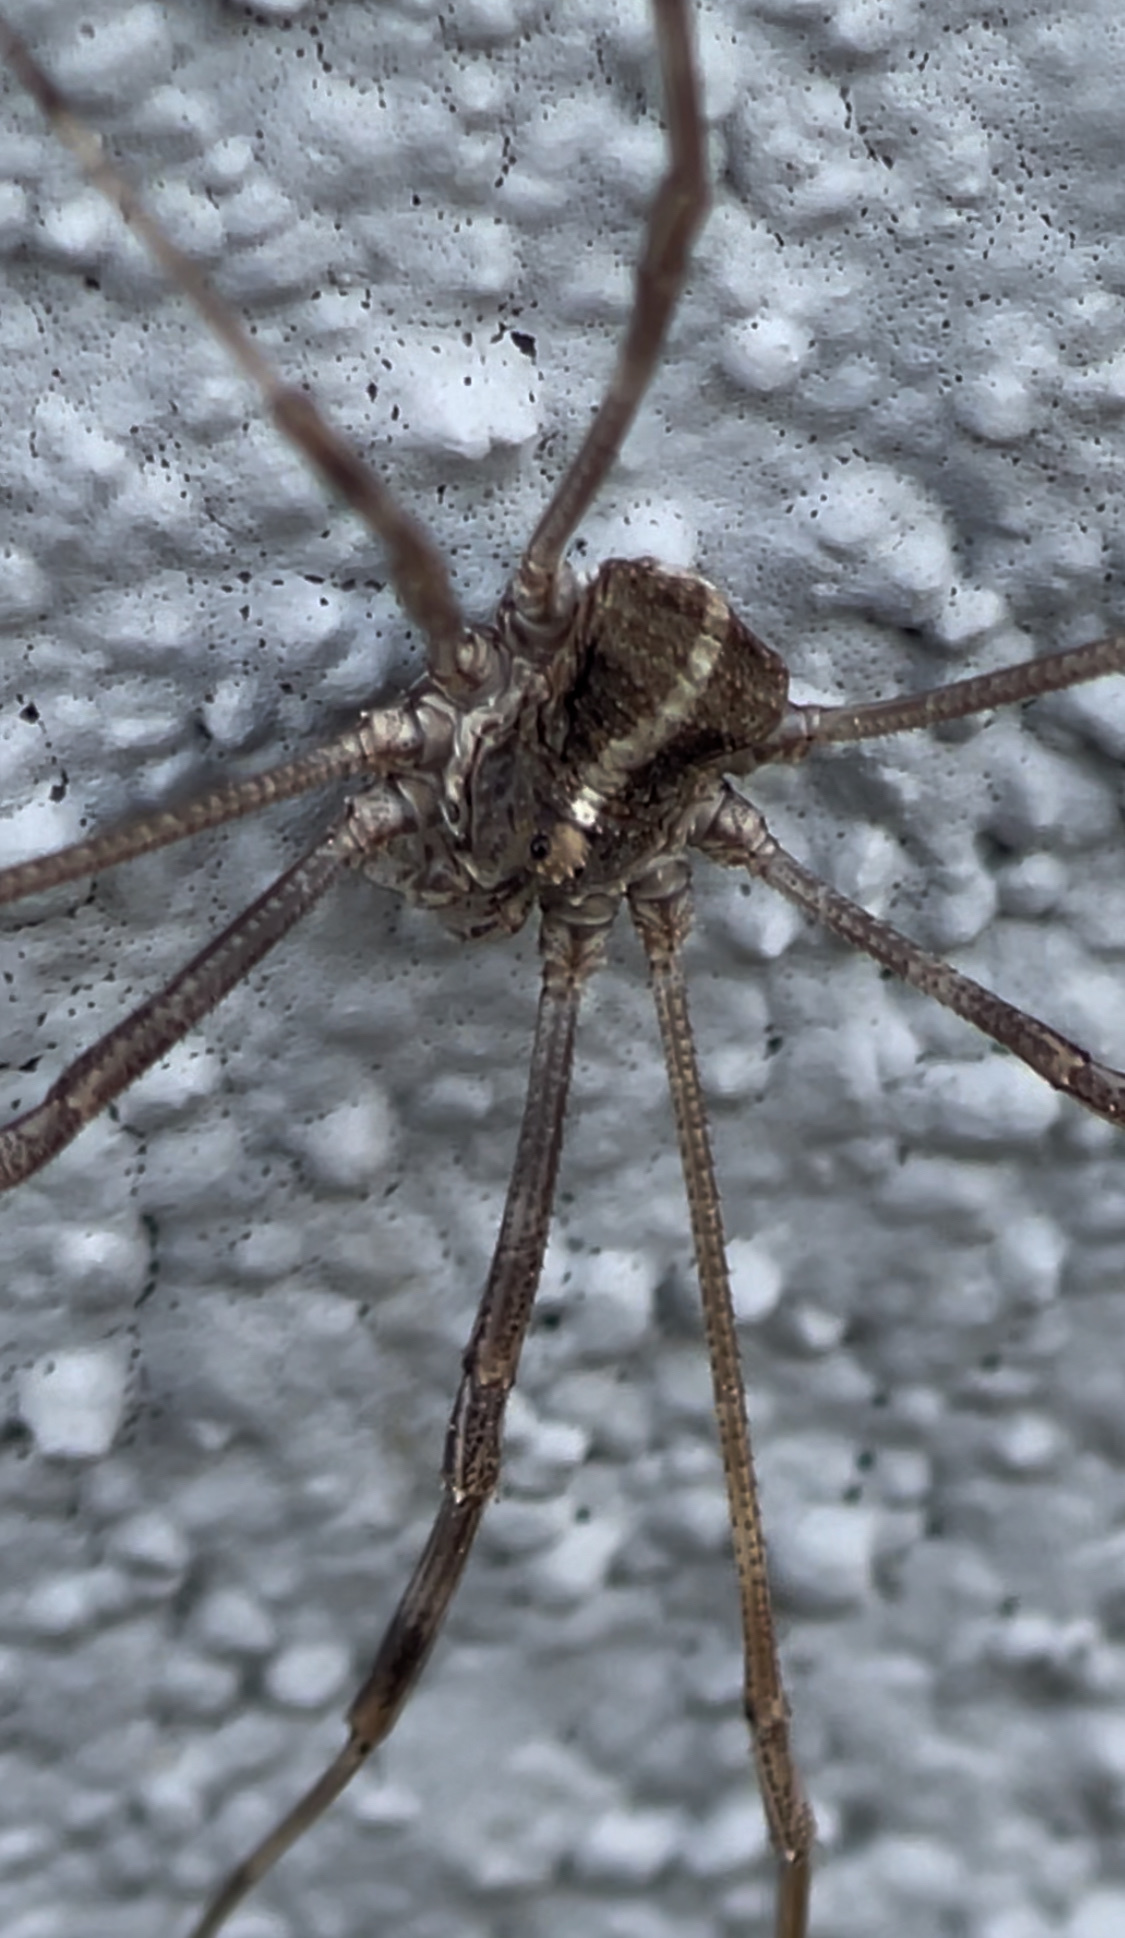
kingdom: Animalia
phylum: Arthropoda
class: Arachnida
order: Opiliones
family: Phalangiidae
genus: Bunochelis
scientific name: Bunochelis spinifera
